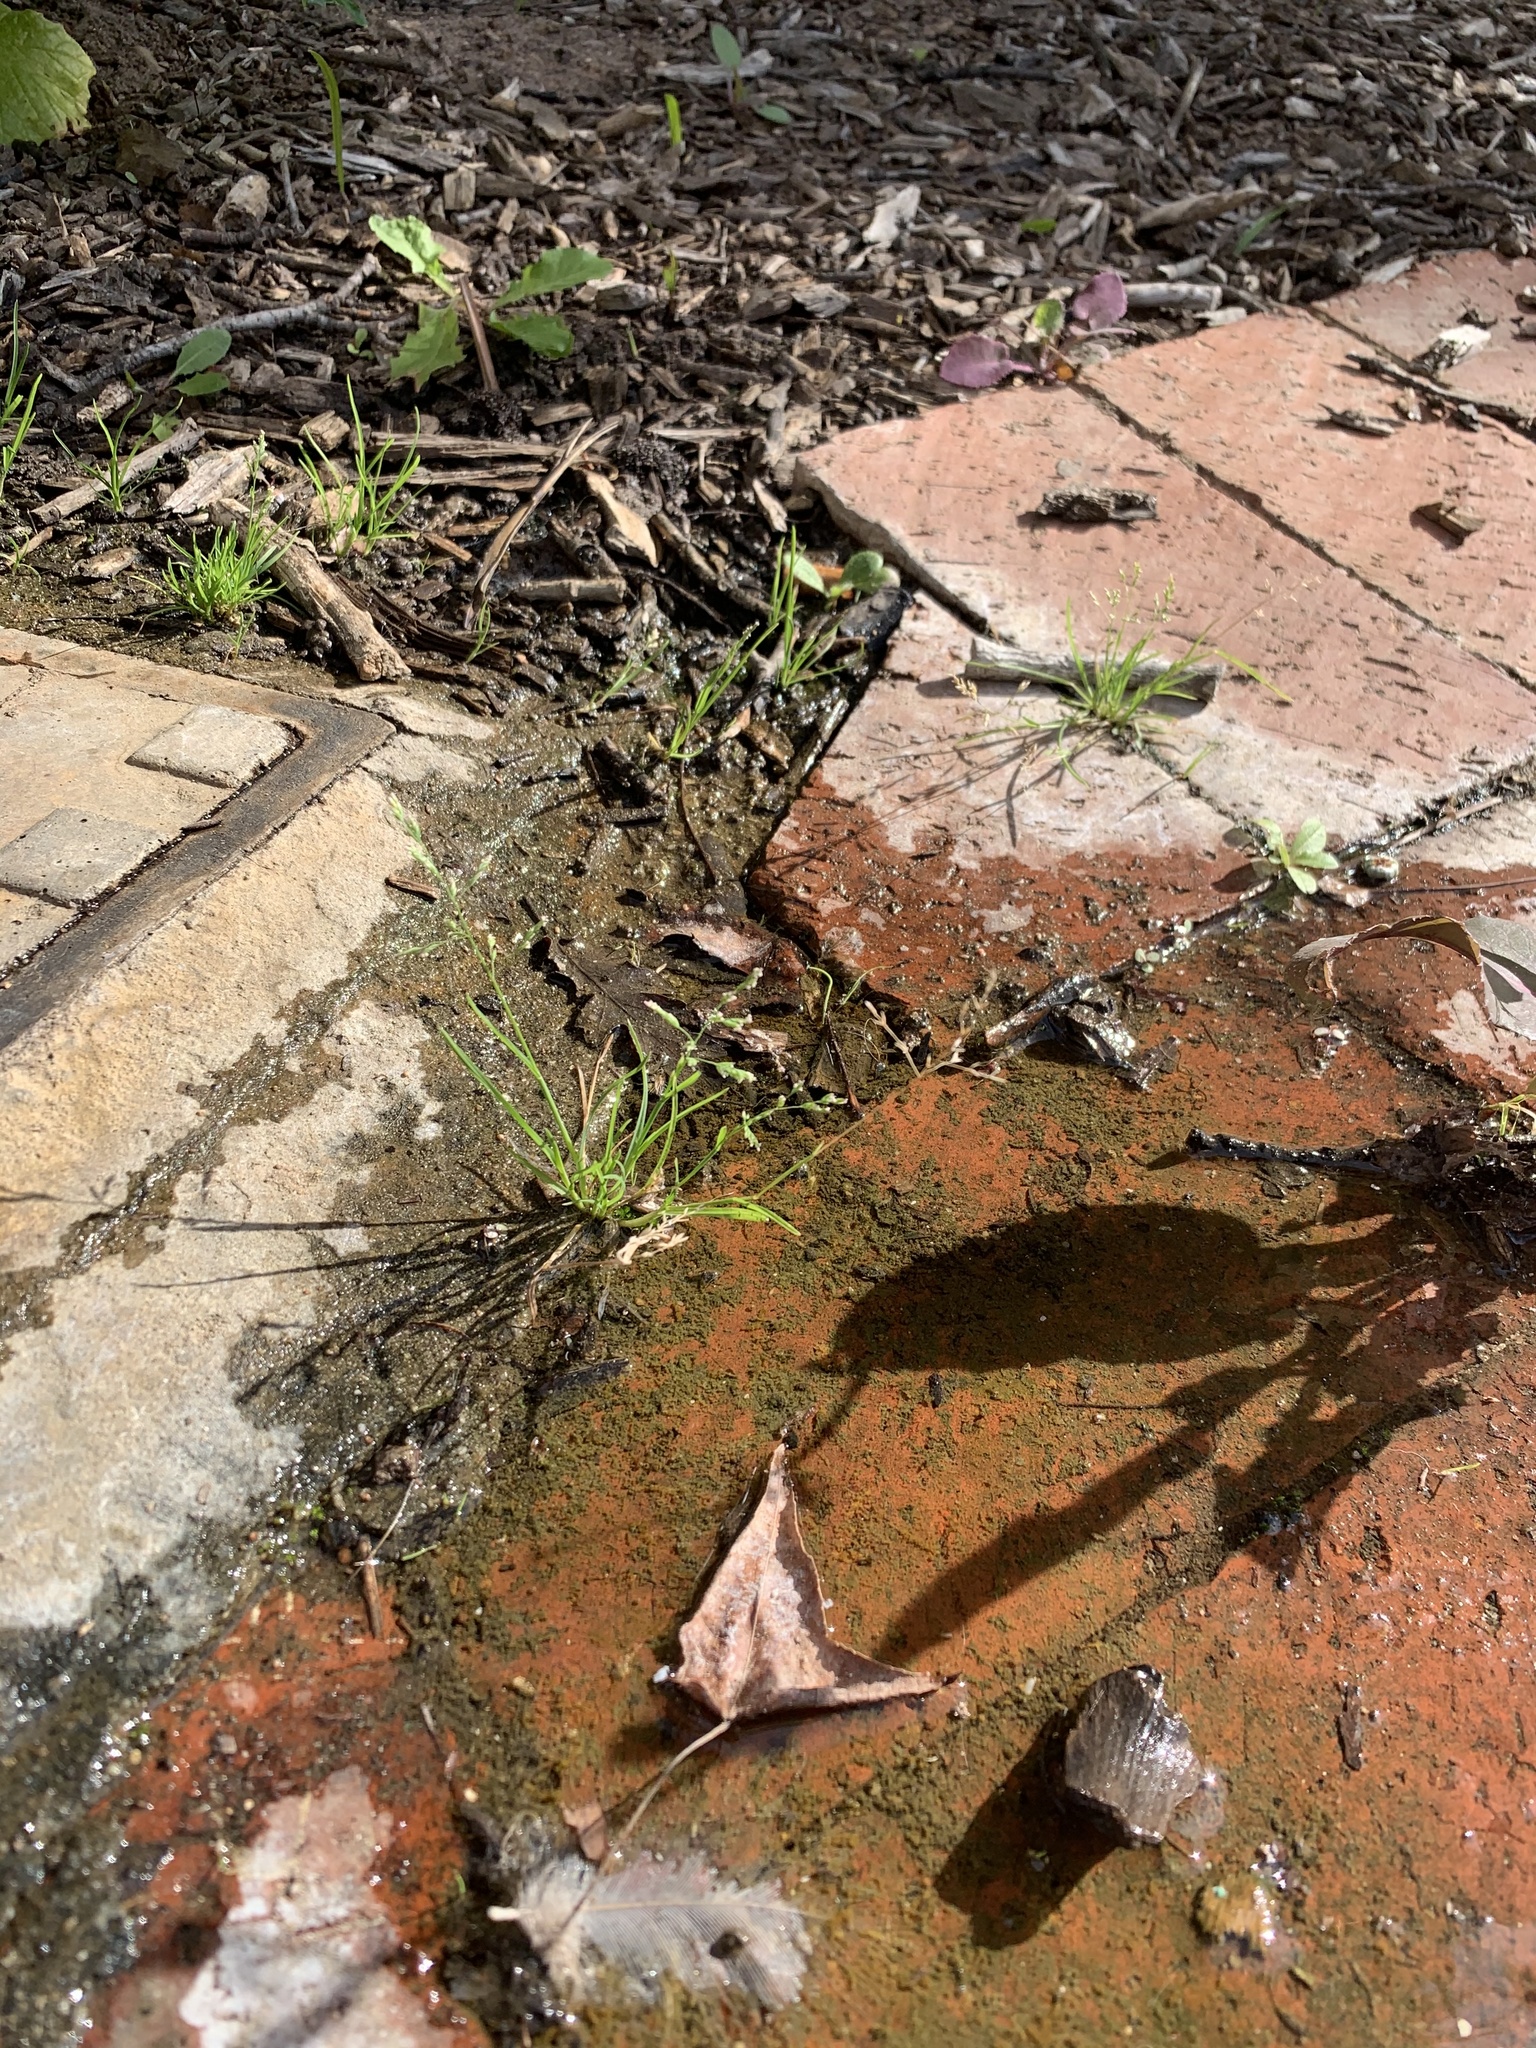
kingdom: Plantae
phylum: Tracheophyta
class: Liliopsida
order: Poales
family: Poaceae
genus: Poa
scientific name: Poa annua
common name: Annual bluegrass
